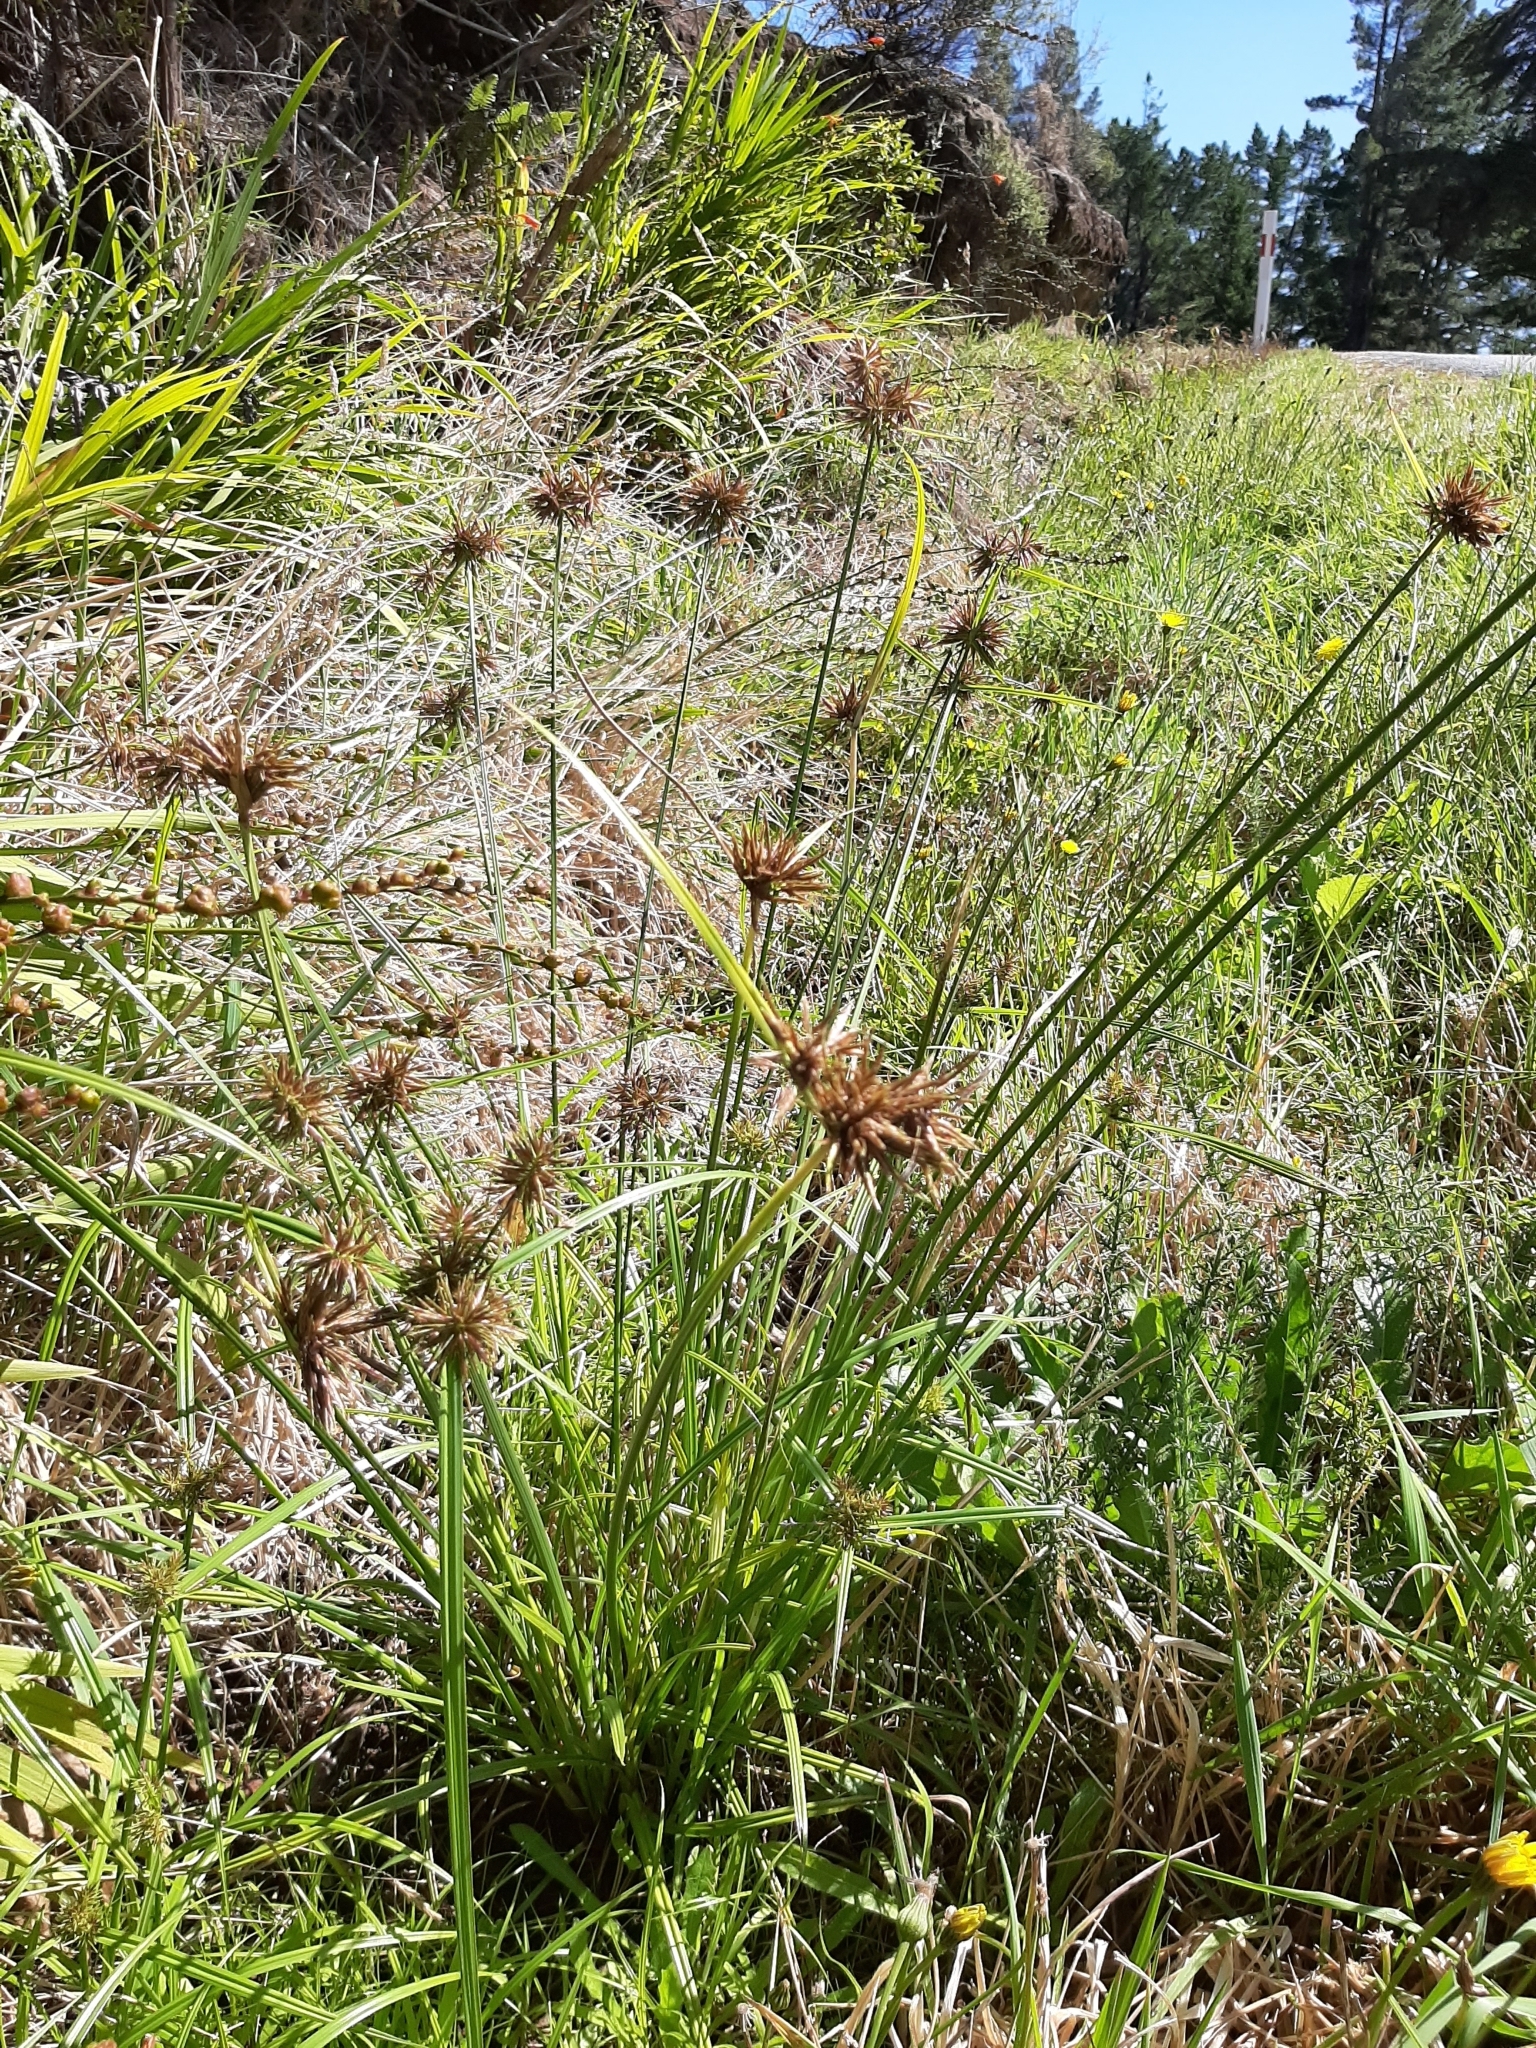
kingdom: Plantae
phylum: Tracheophyta
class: Liliopsida
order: Poales
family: Cyperaceae
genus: Cyperus
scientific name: Cyperus congestus
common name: Dense flat sedge
